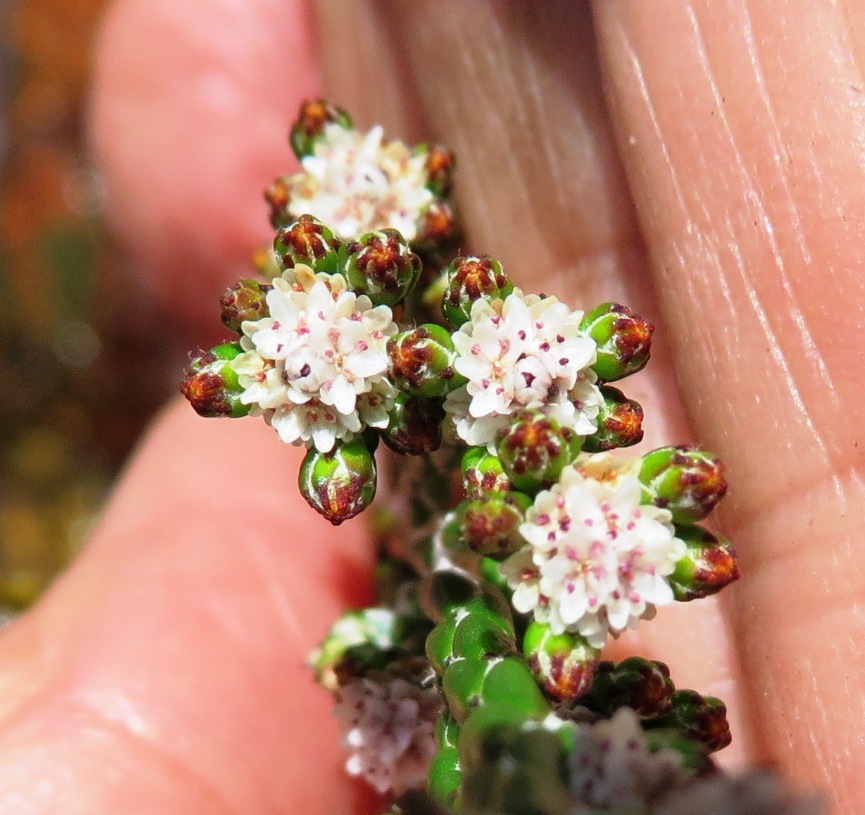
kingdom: Plantae
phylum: Tracheophyta
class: Magnoliopsida
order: Bruniales
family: Bruniaceae
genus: Brunia
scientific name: Brunia virgata
